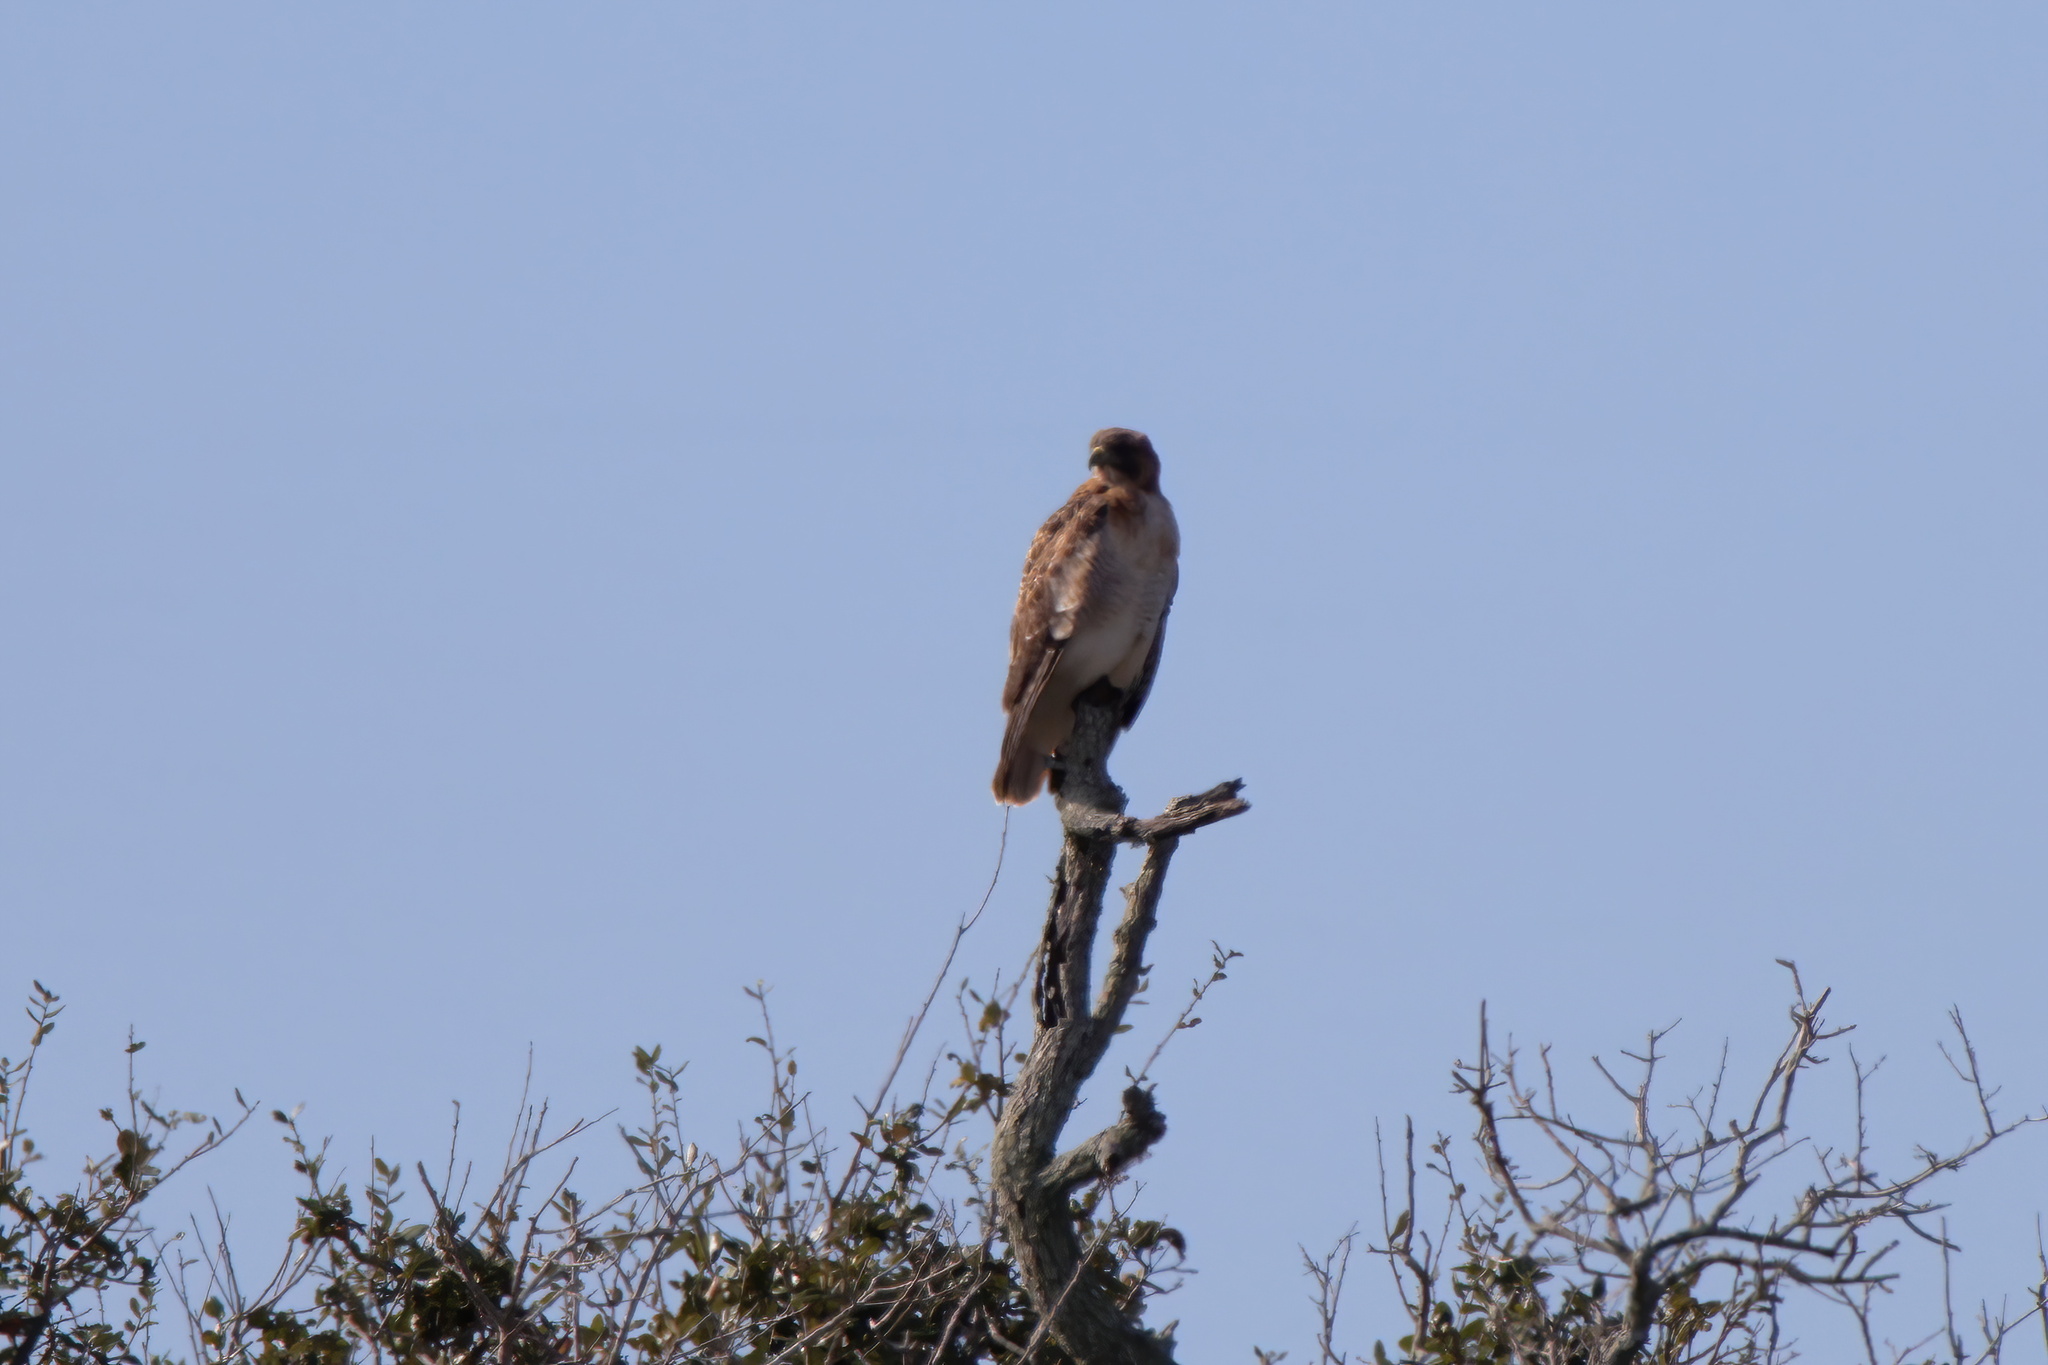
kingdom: Animalia
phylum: Chordata
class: Aves
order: Accipitriformes
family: Accipitridae
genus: Buteo
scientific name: Buteo jamaicensis
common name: Red-tailed hawk
